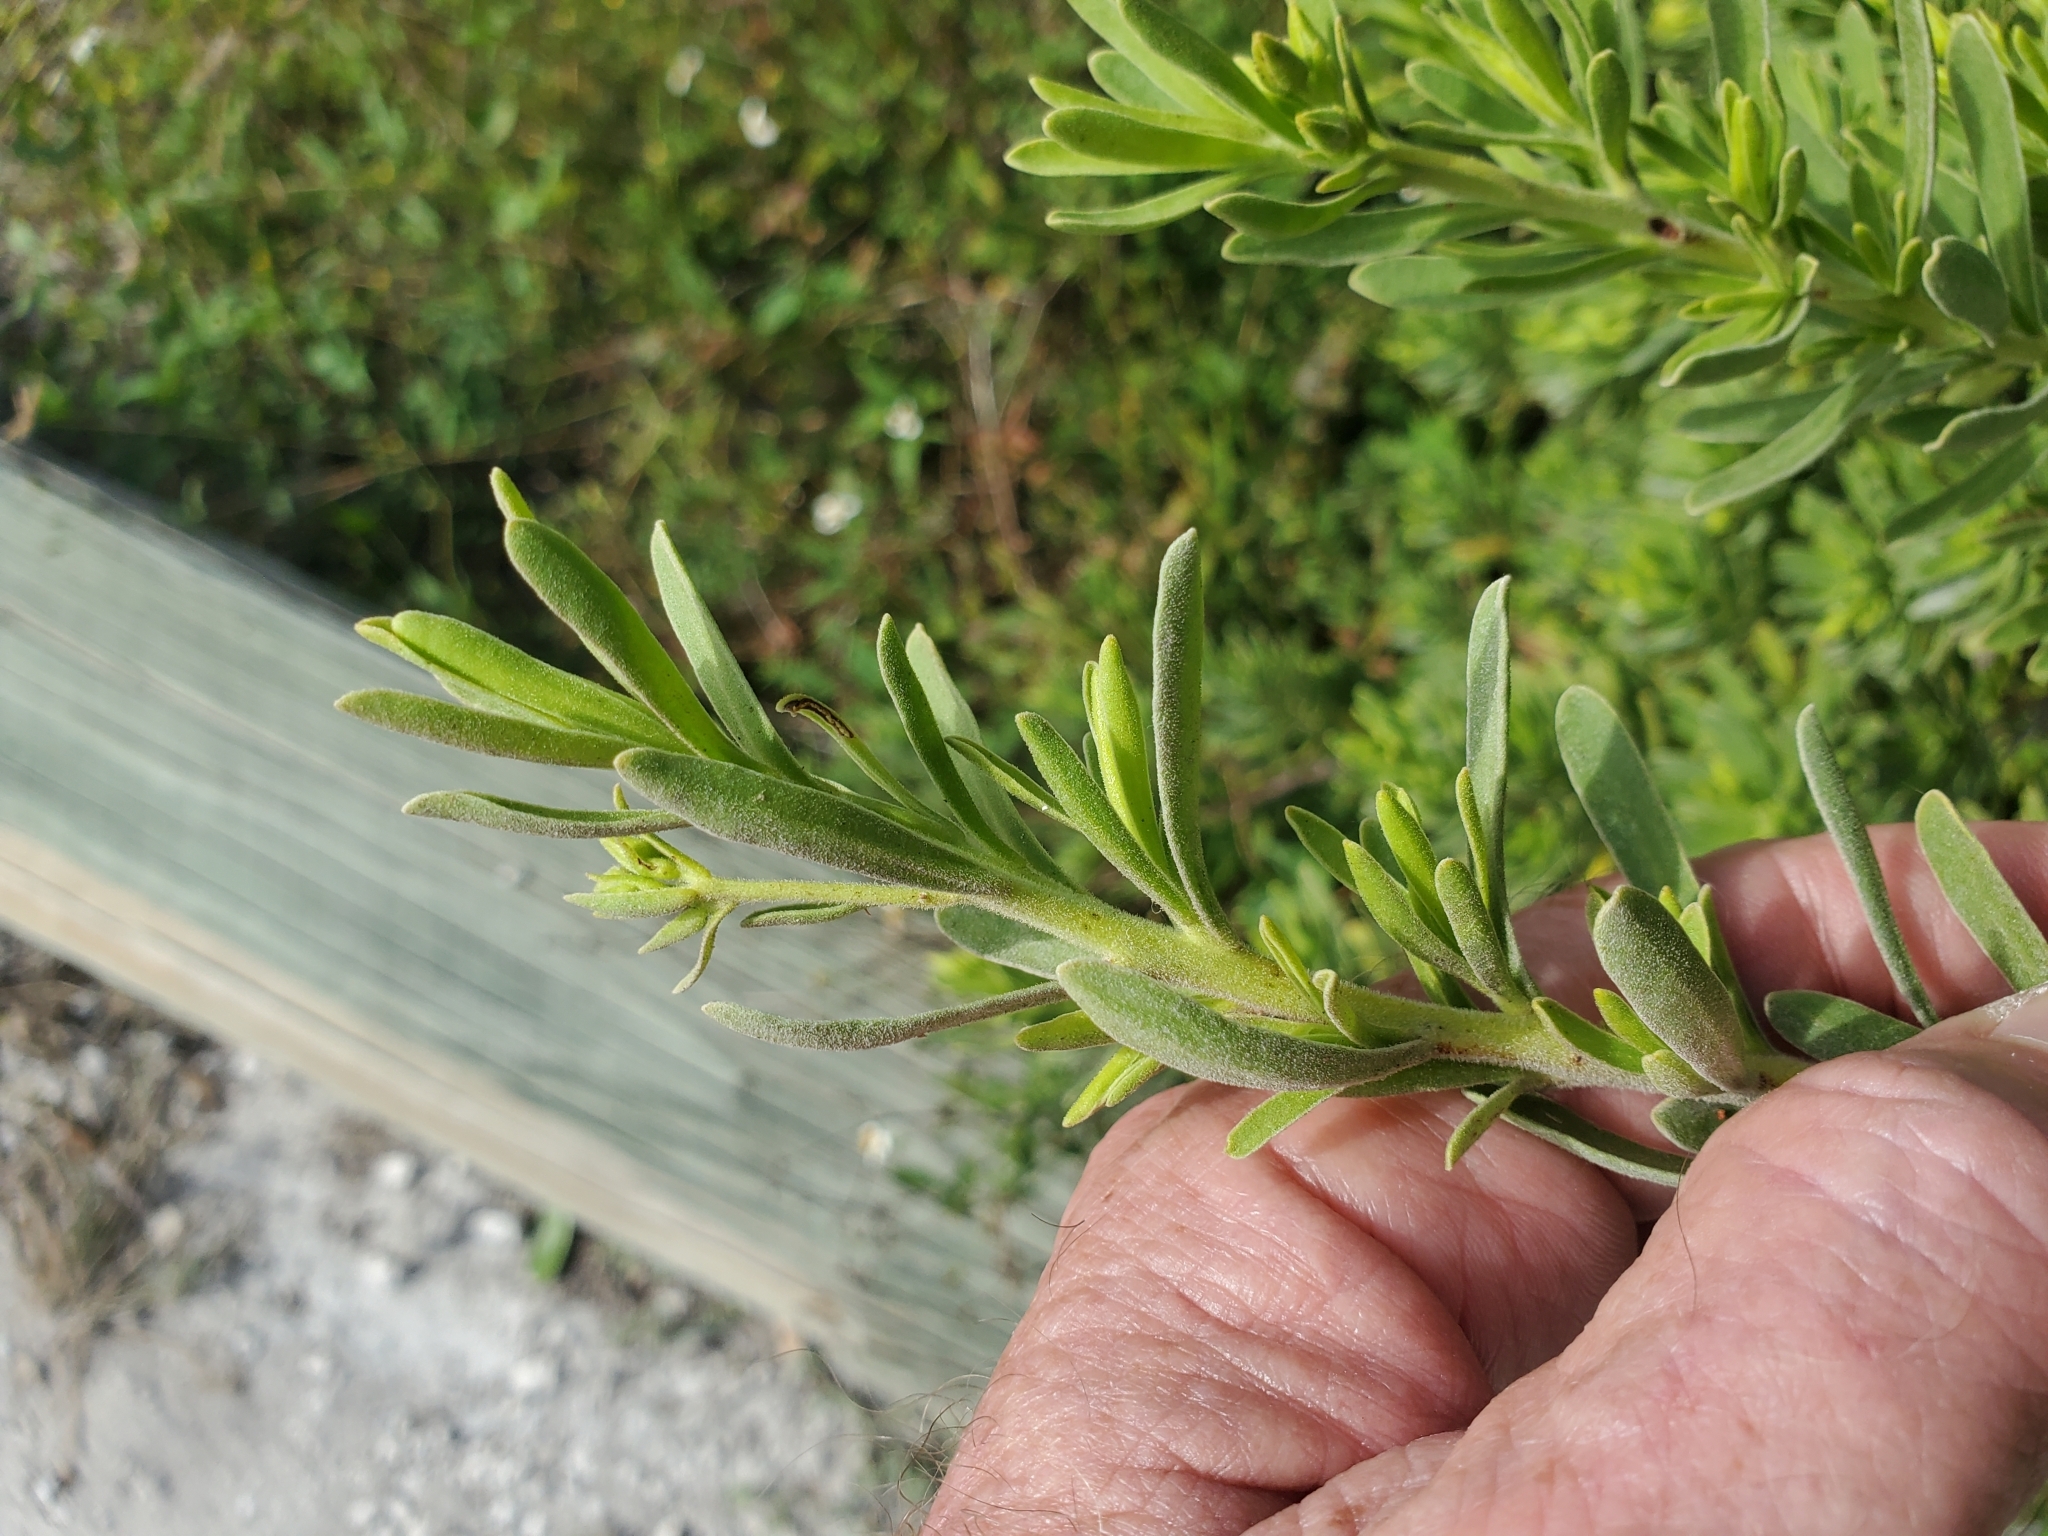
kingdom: Plantae
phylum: Tracheophyta
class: Magnoliopsida
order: Fabales
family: Surianaceae
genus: Suriana
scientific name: Suriana maritima
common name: Bay-cedar
